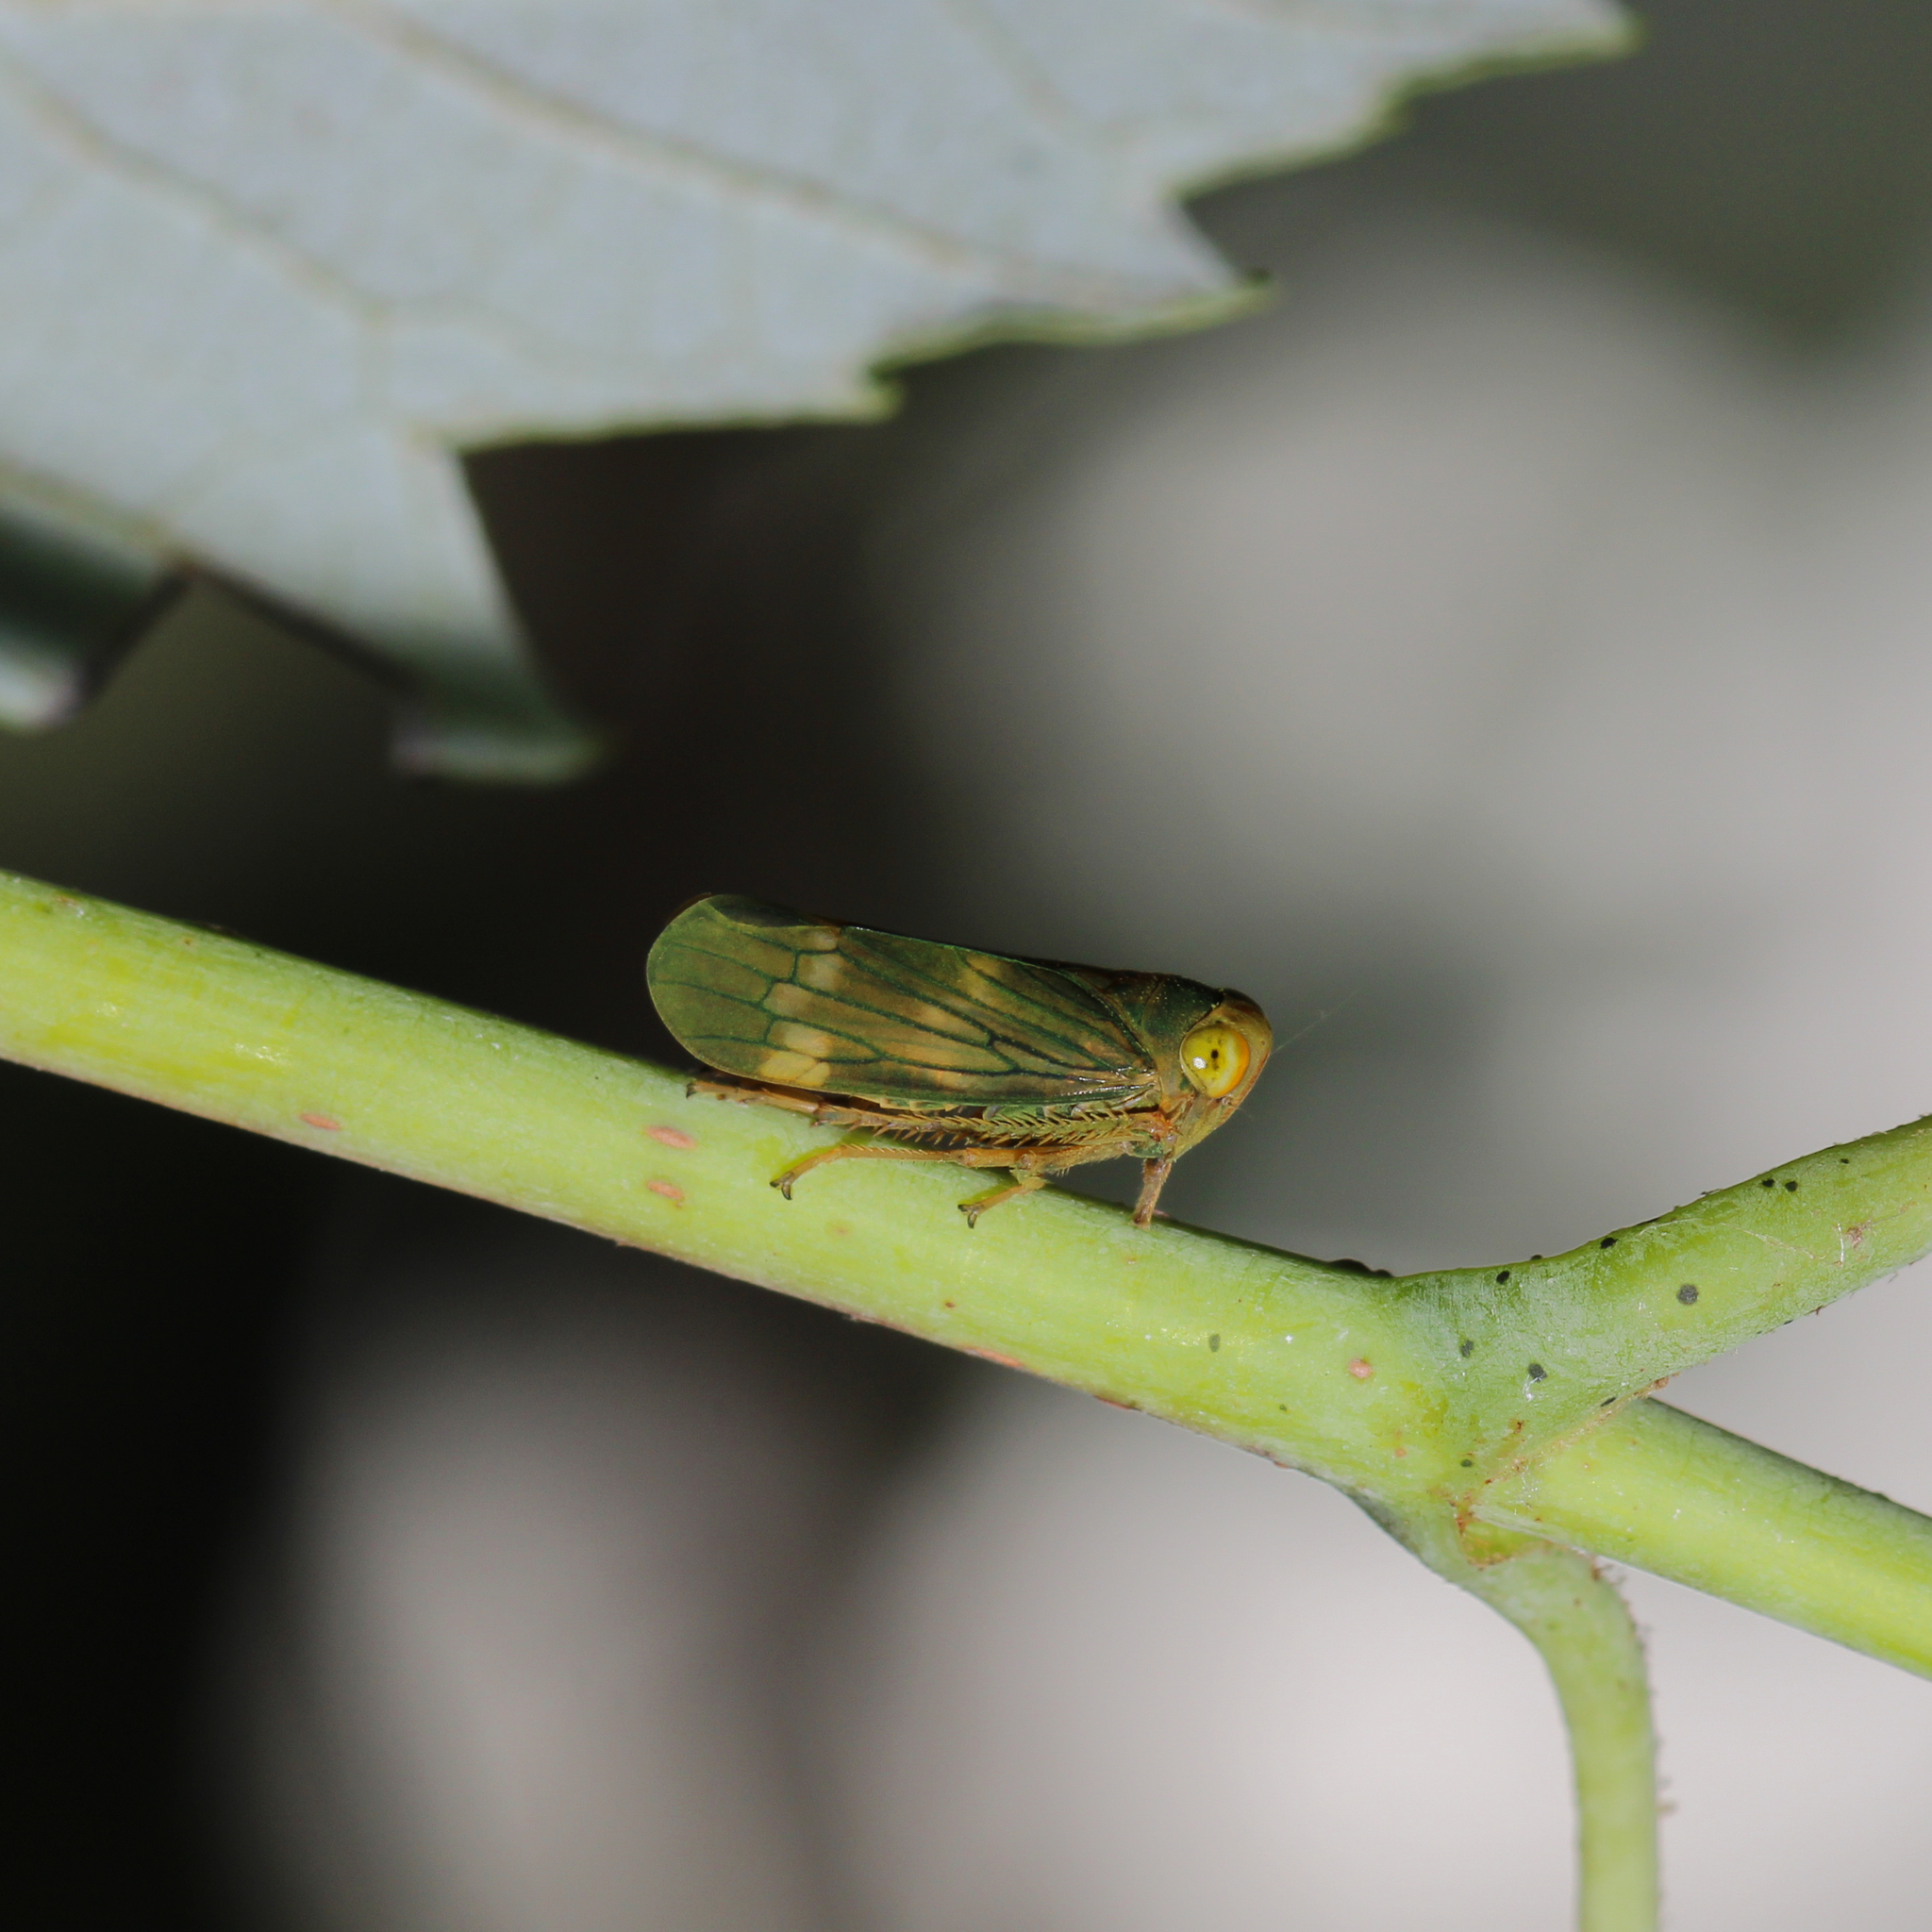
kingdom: Animalia
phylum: Arthropoda
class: Insecta
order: Hemiptera
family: Cicadellidae
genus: Jikradia
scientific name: Jikradia olitoria
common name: Coppery leafhopper
